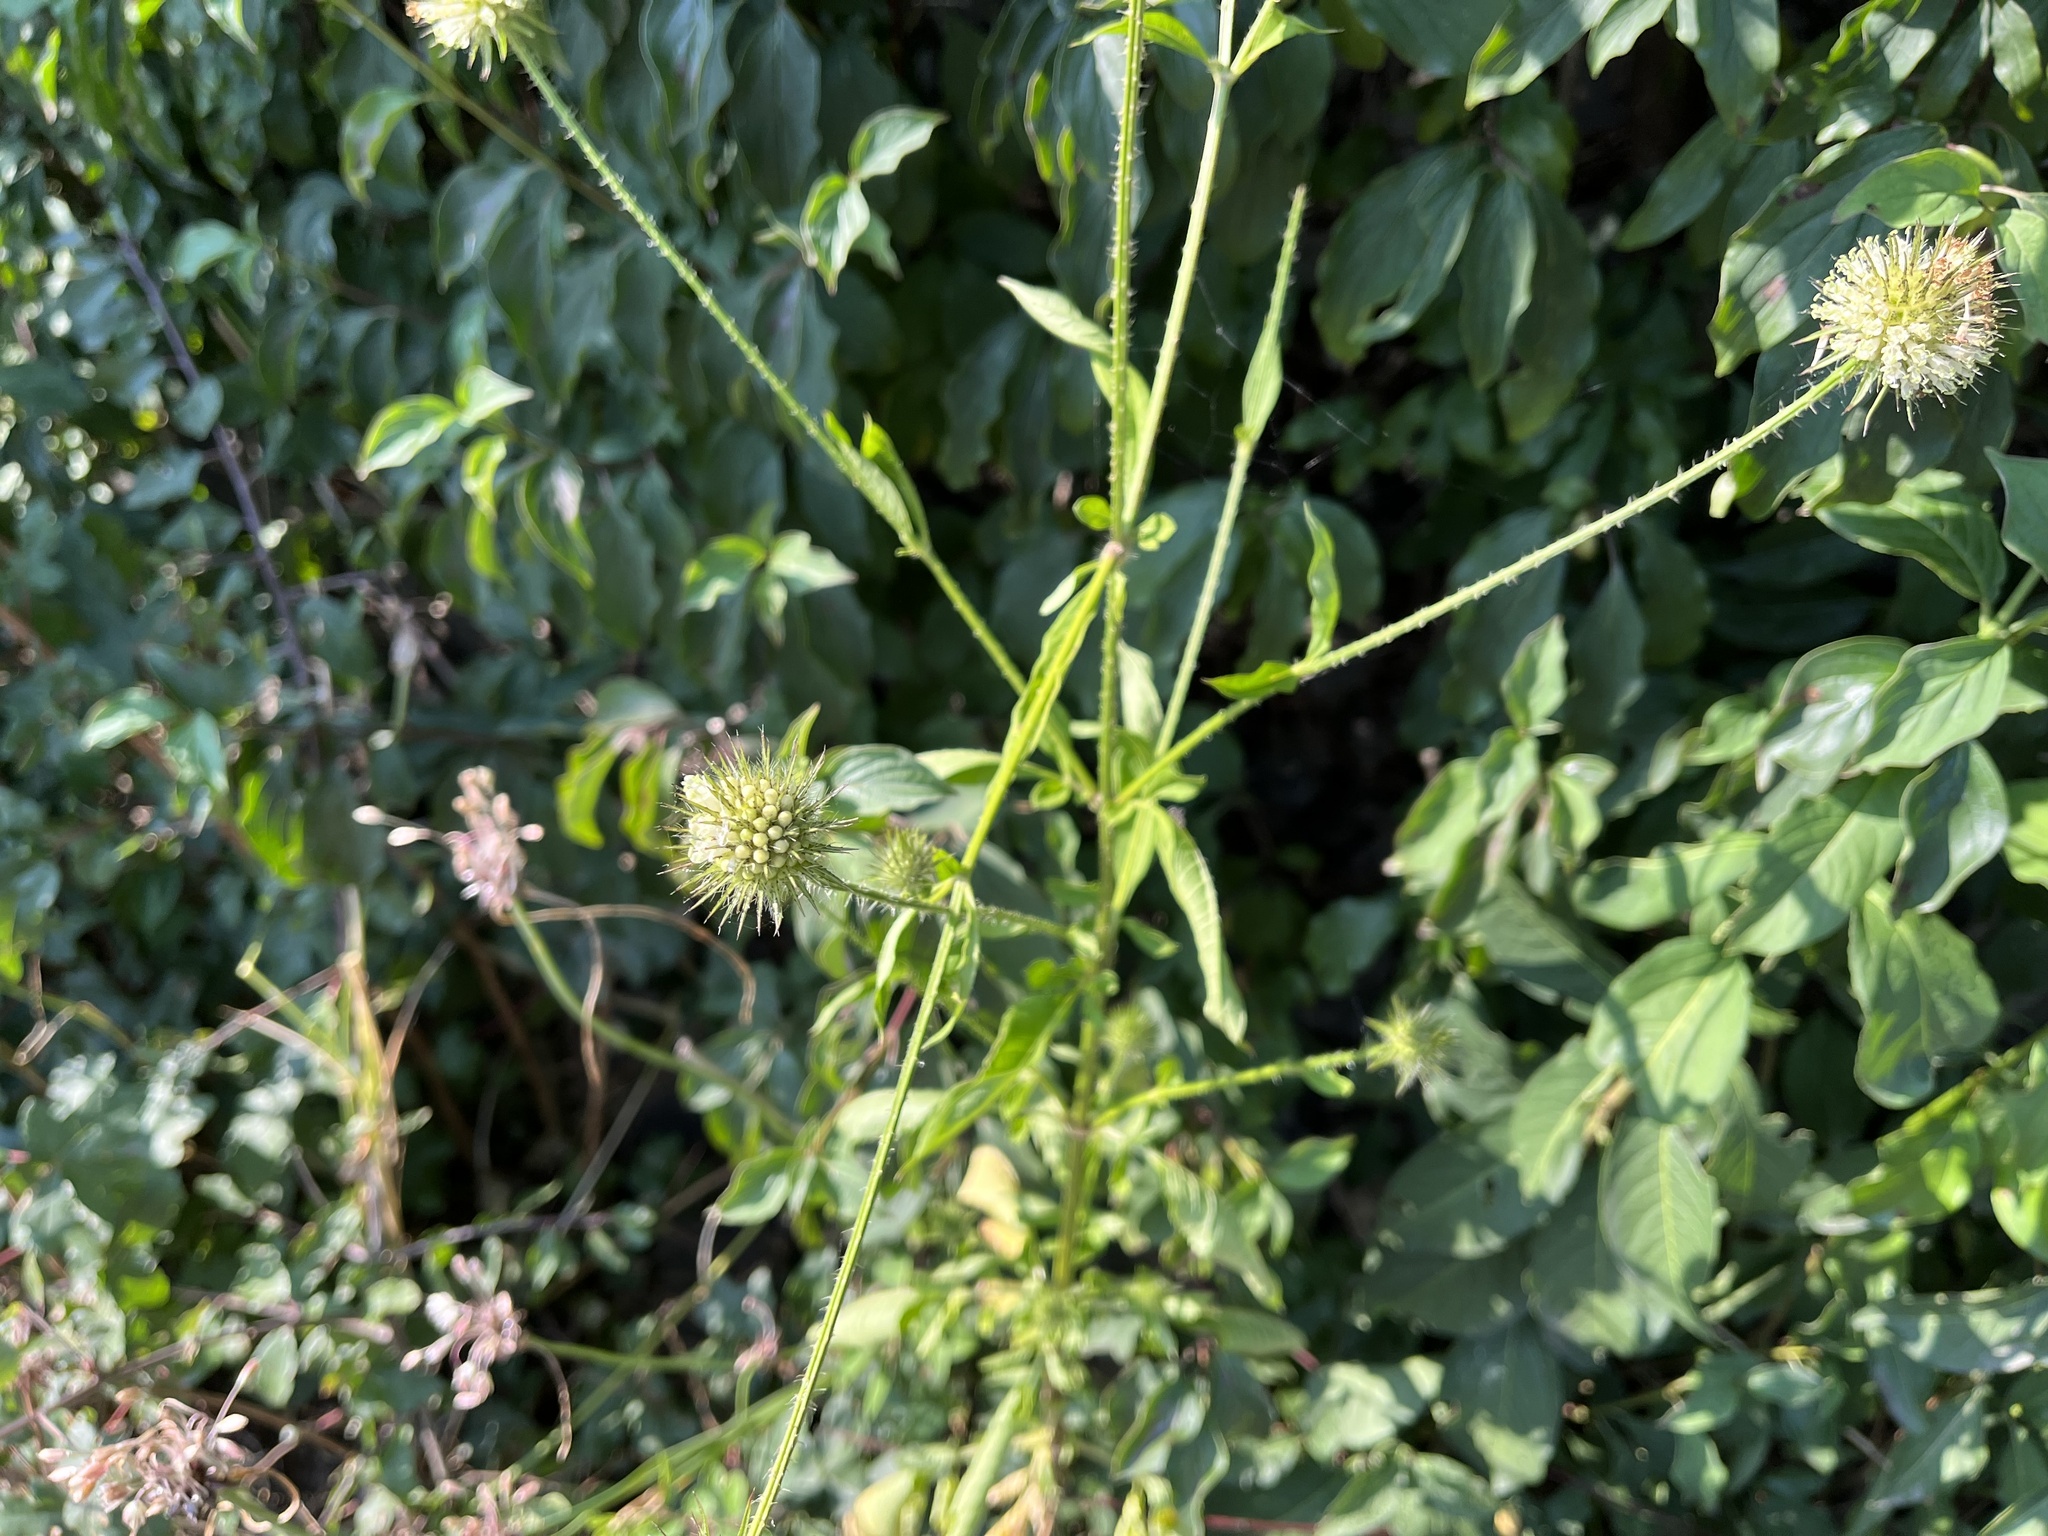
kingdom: Plantae
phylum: Tracheophyta
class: Magnoliopsida
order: Dipsacales
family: Caprifoliaceae
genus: Dipsacus
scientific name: Dipsacus strigosus
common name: Yellow-flowered teasel
